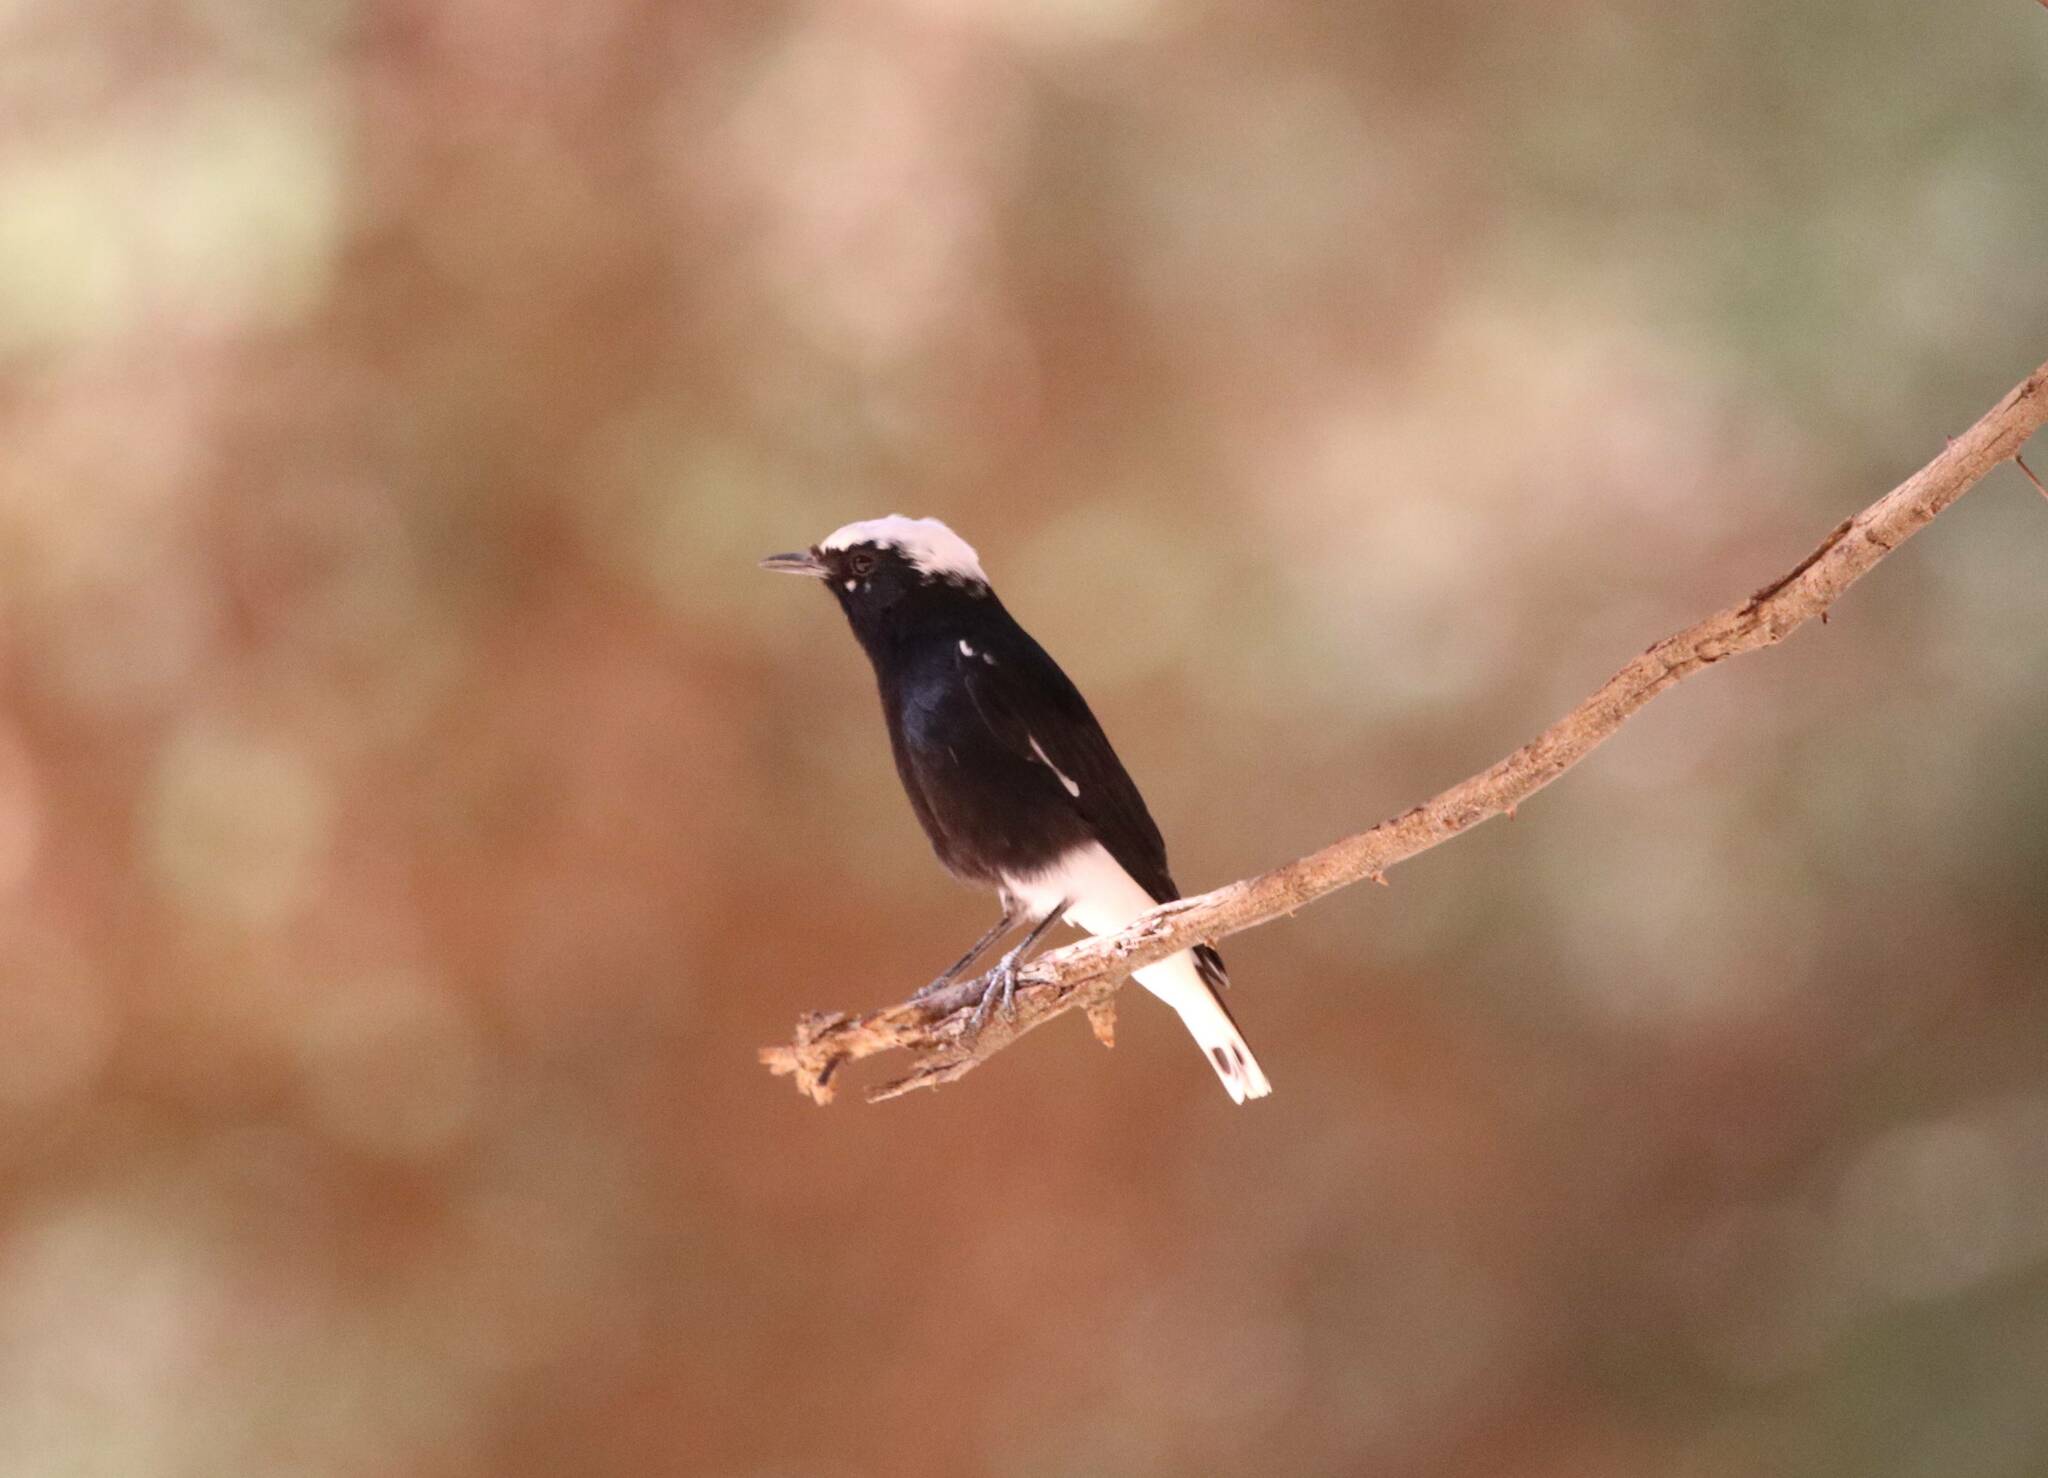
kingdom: Animalia
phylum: Chordata
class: Aves
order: Passeriformes
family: Muscicapidae
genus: Oenanthe
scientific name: Oenanthe leucopyga
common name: White-crowned wheatear
